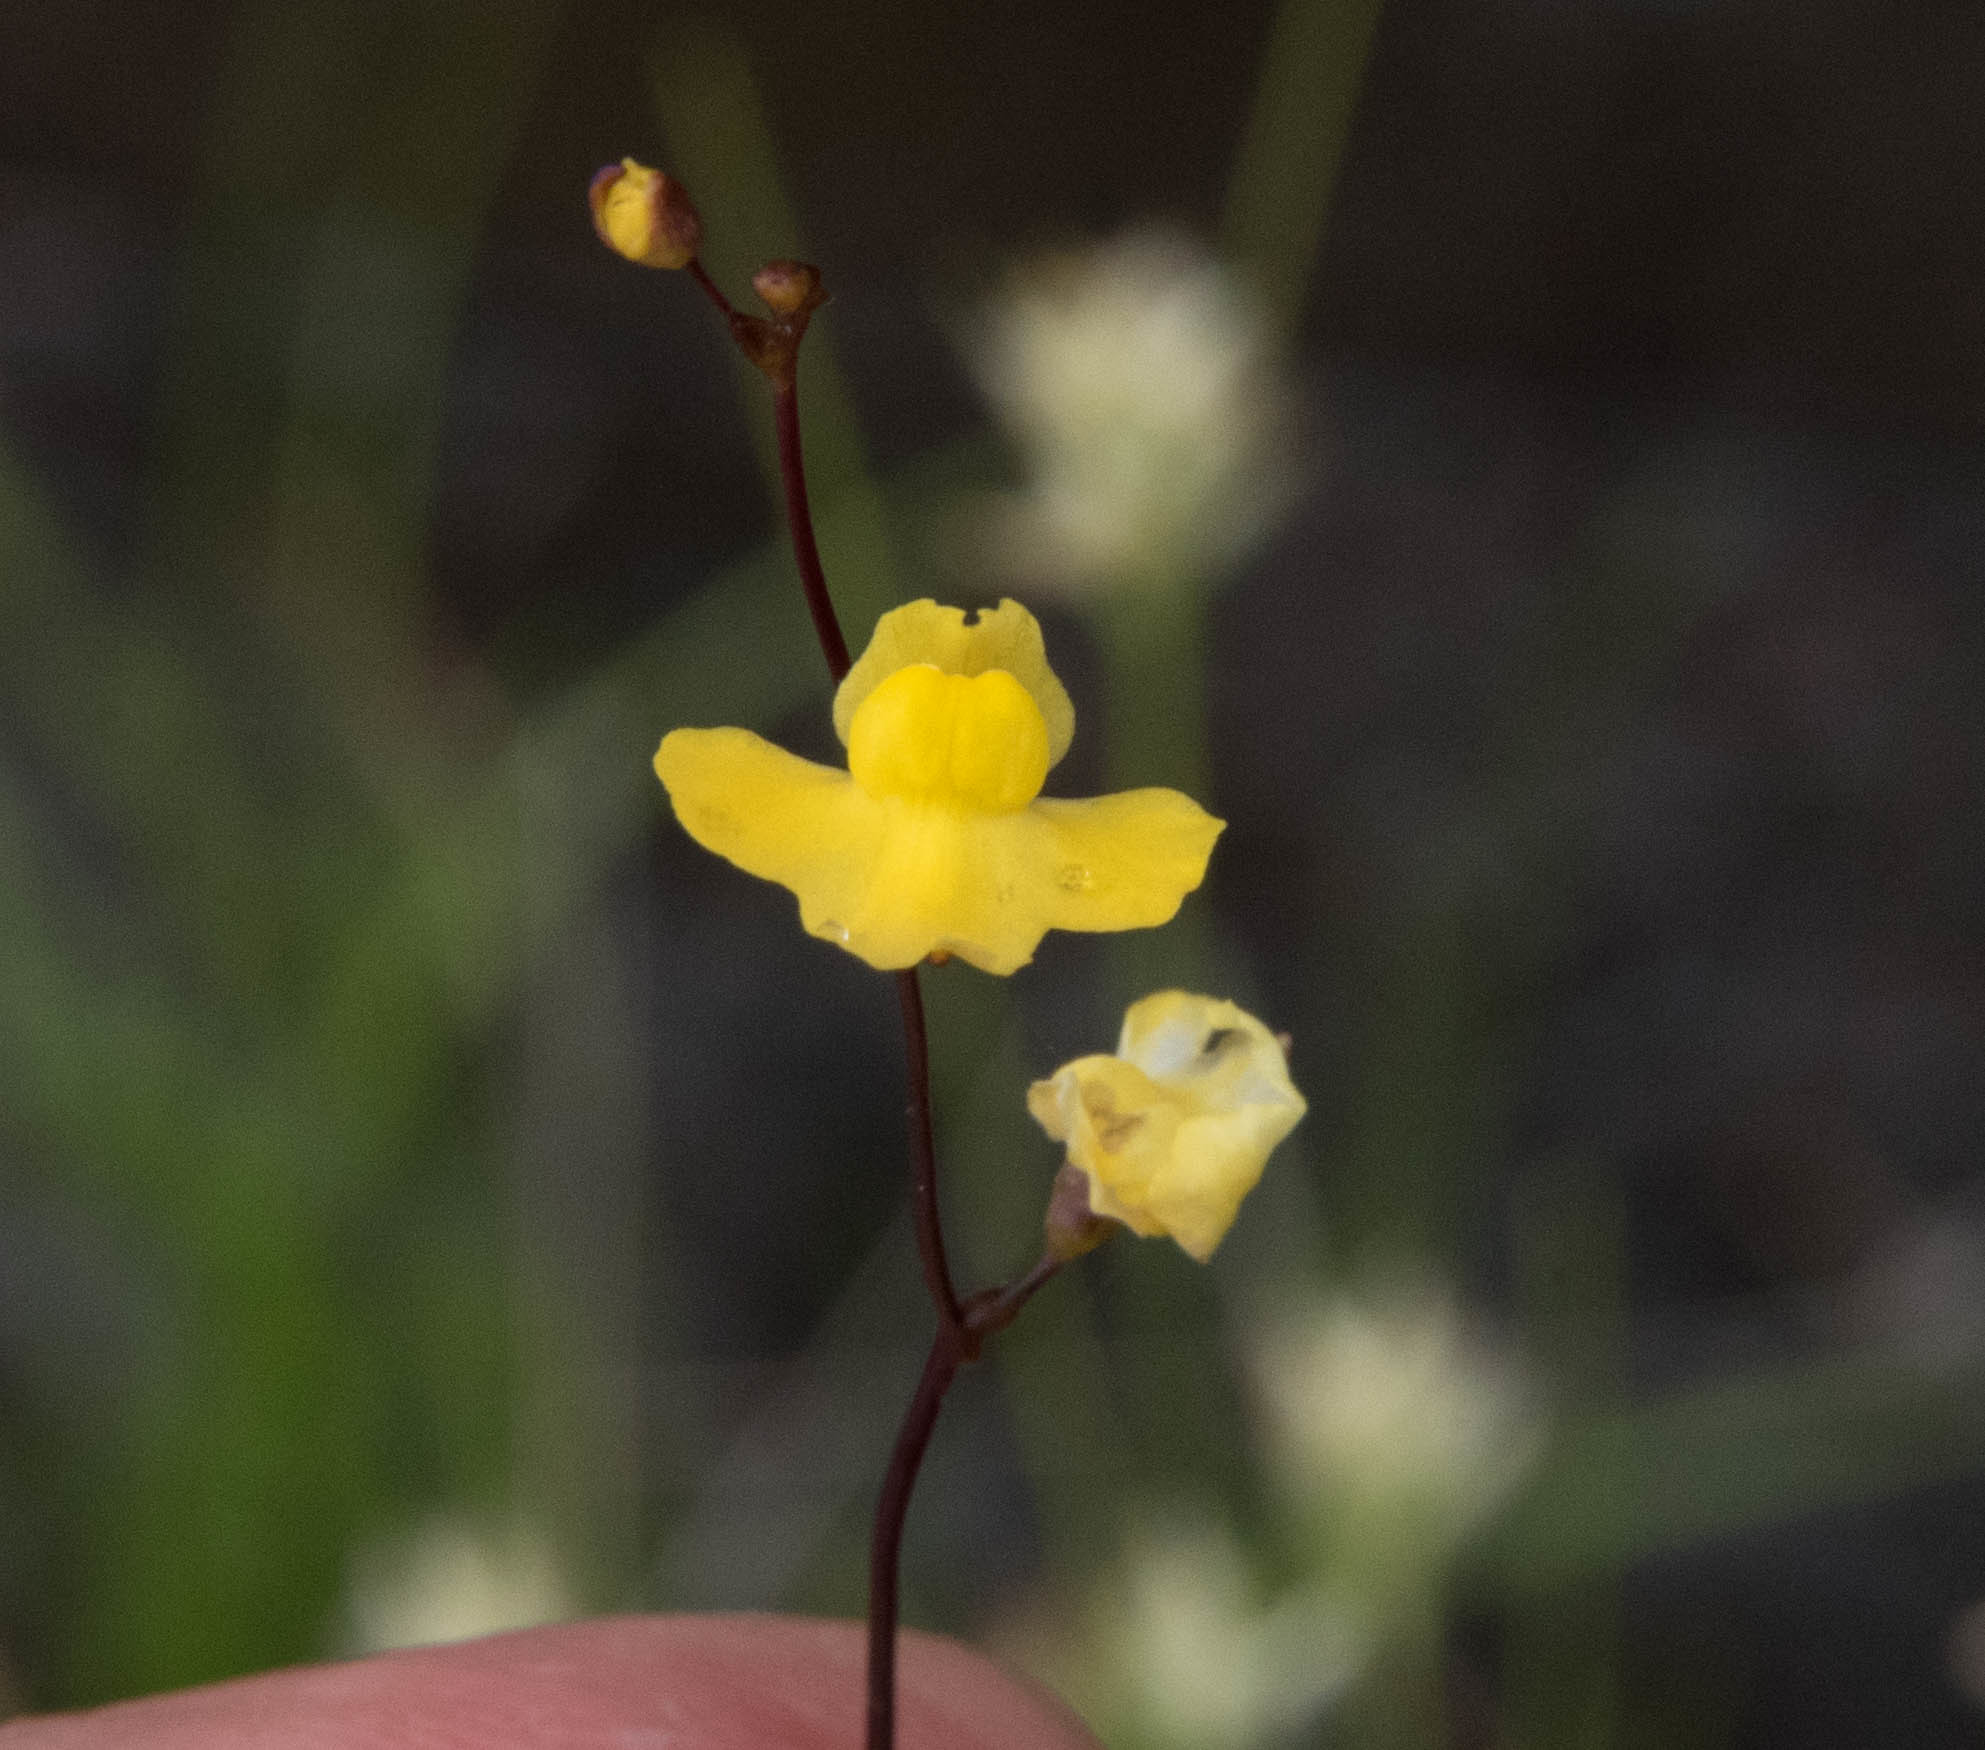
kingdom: Plantae
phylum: Tracheophyta
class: Magnoliopsida
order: Lamiales
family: Lentibulariaceae
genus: Utricularia
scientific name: Utricularia subulata
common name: Tiny bladderwort
